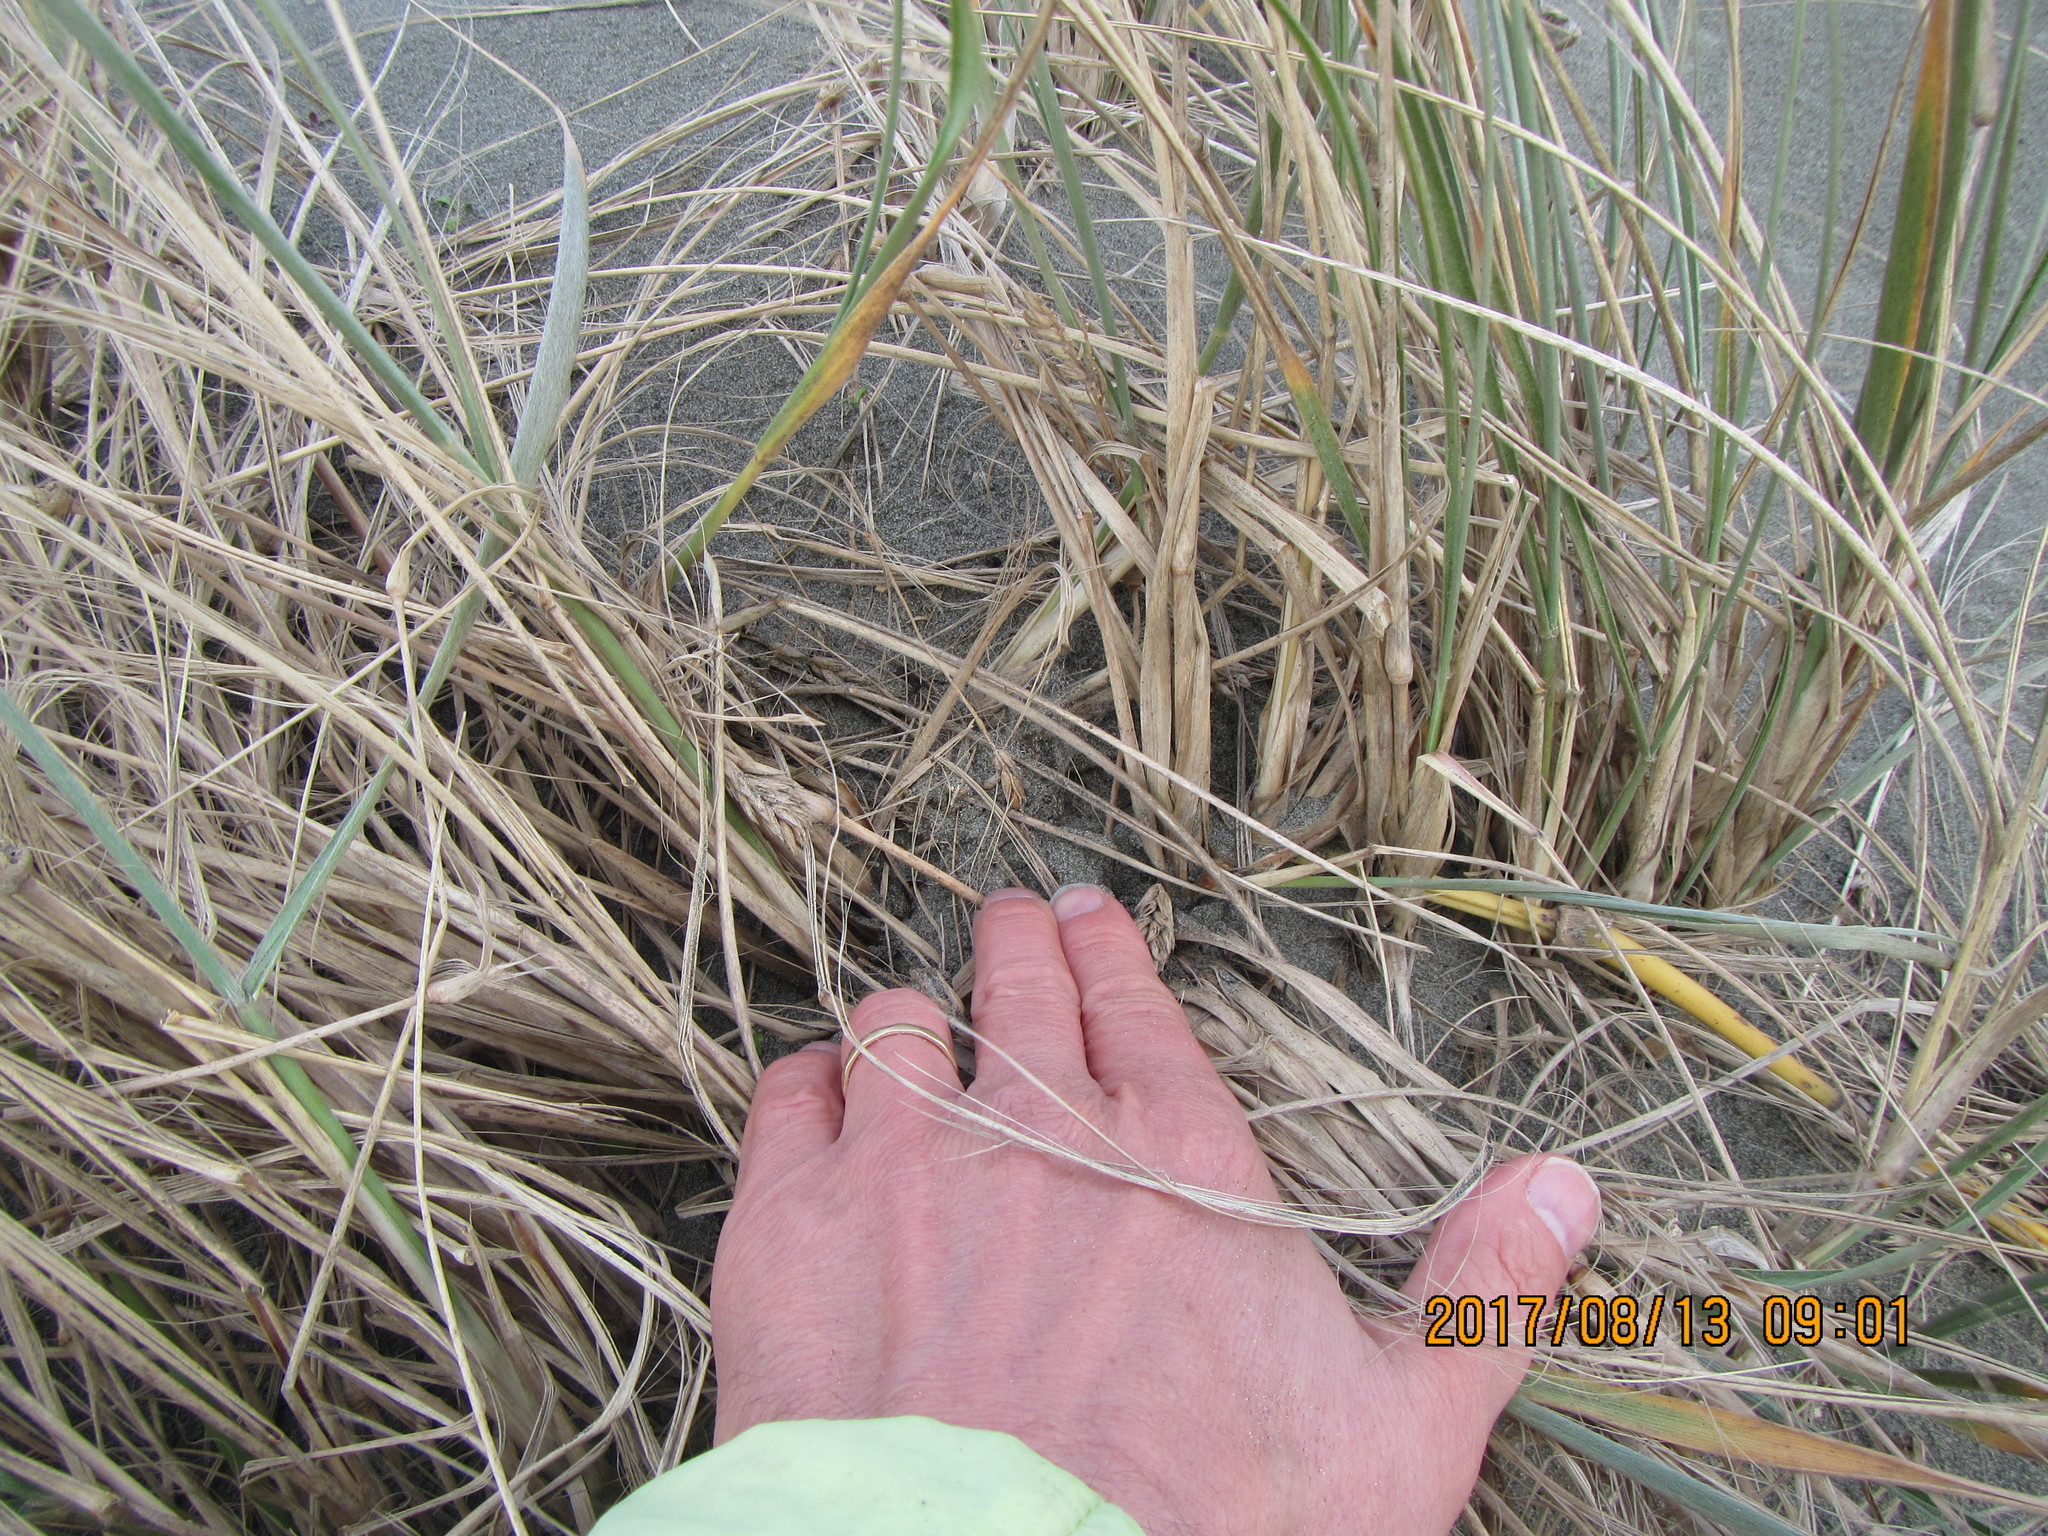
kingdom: Plantae
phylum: Tracheophyta
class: Liliopsida
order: Poales
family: Poaceae
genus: Spinifex
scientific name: Spinifex sericeus
